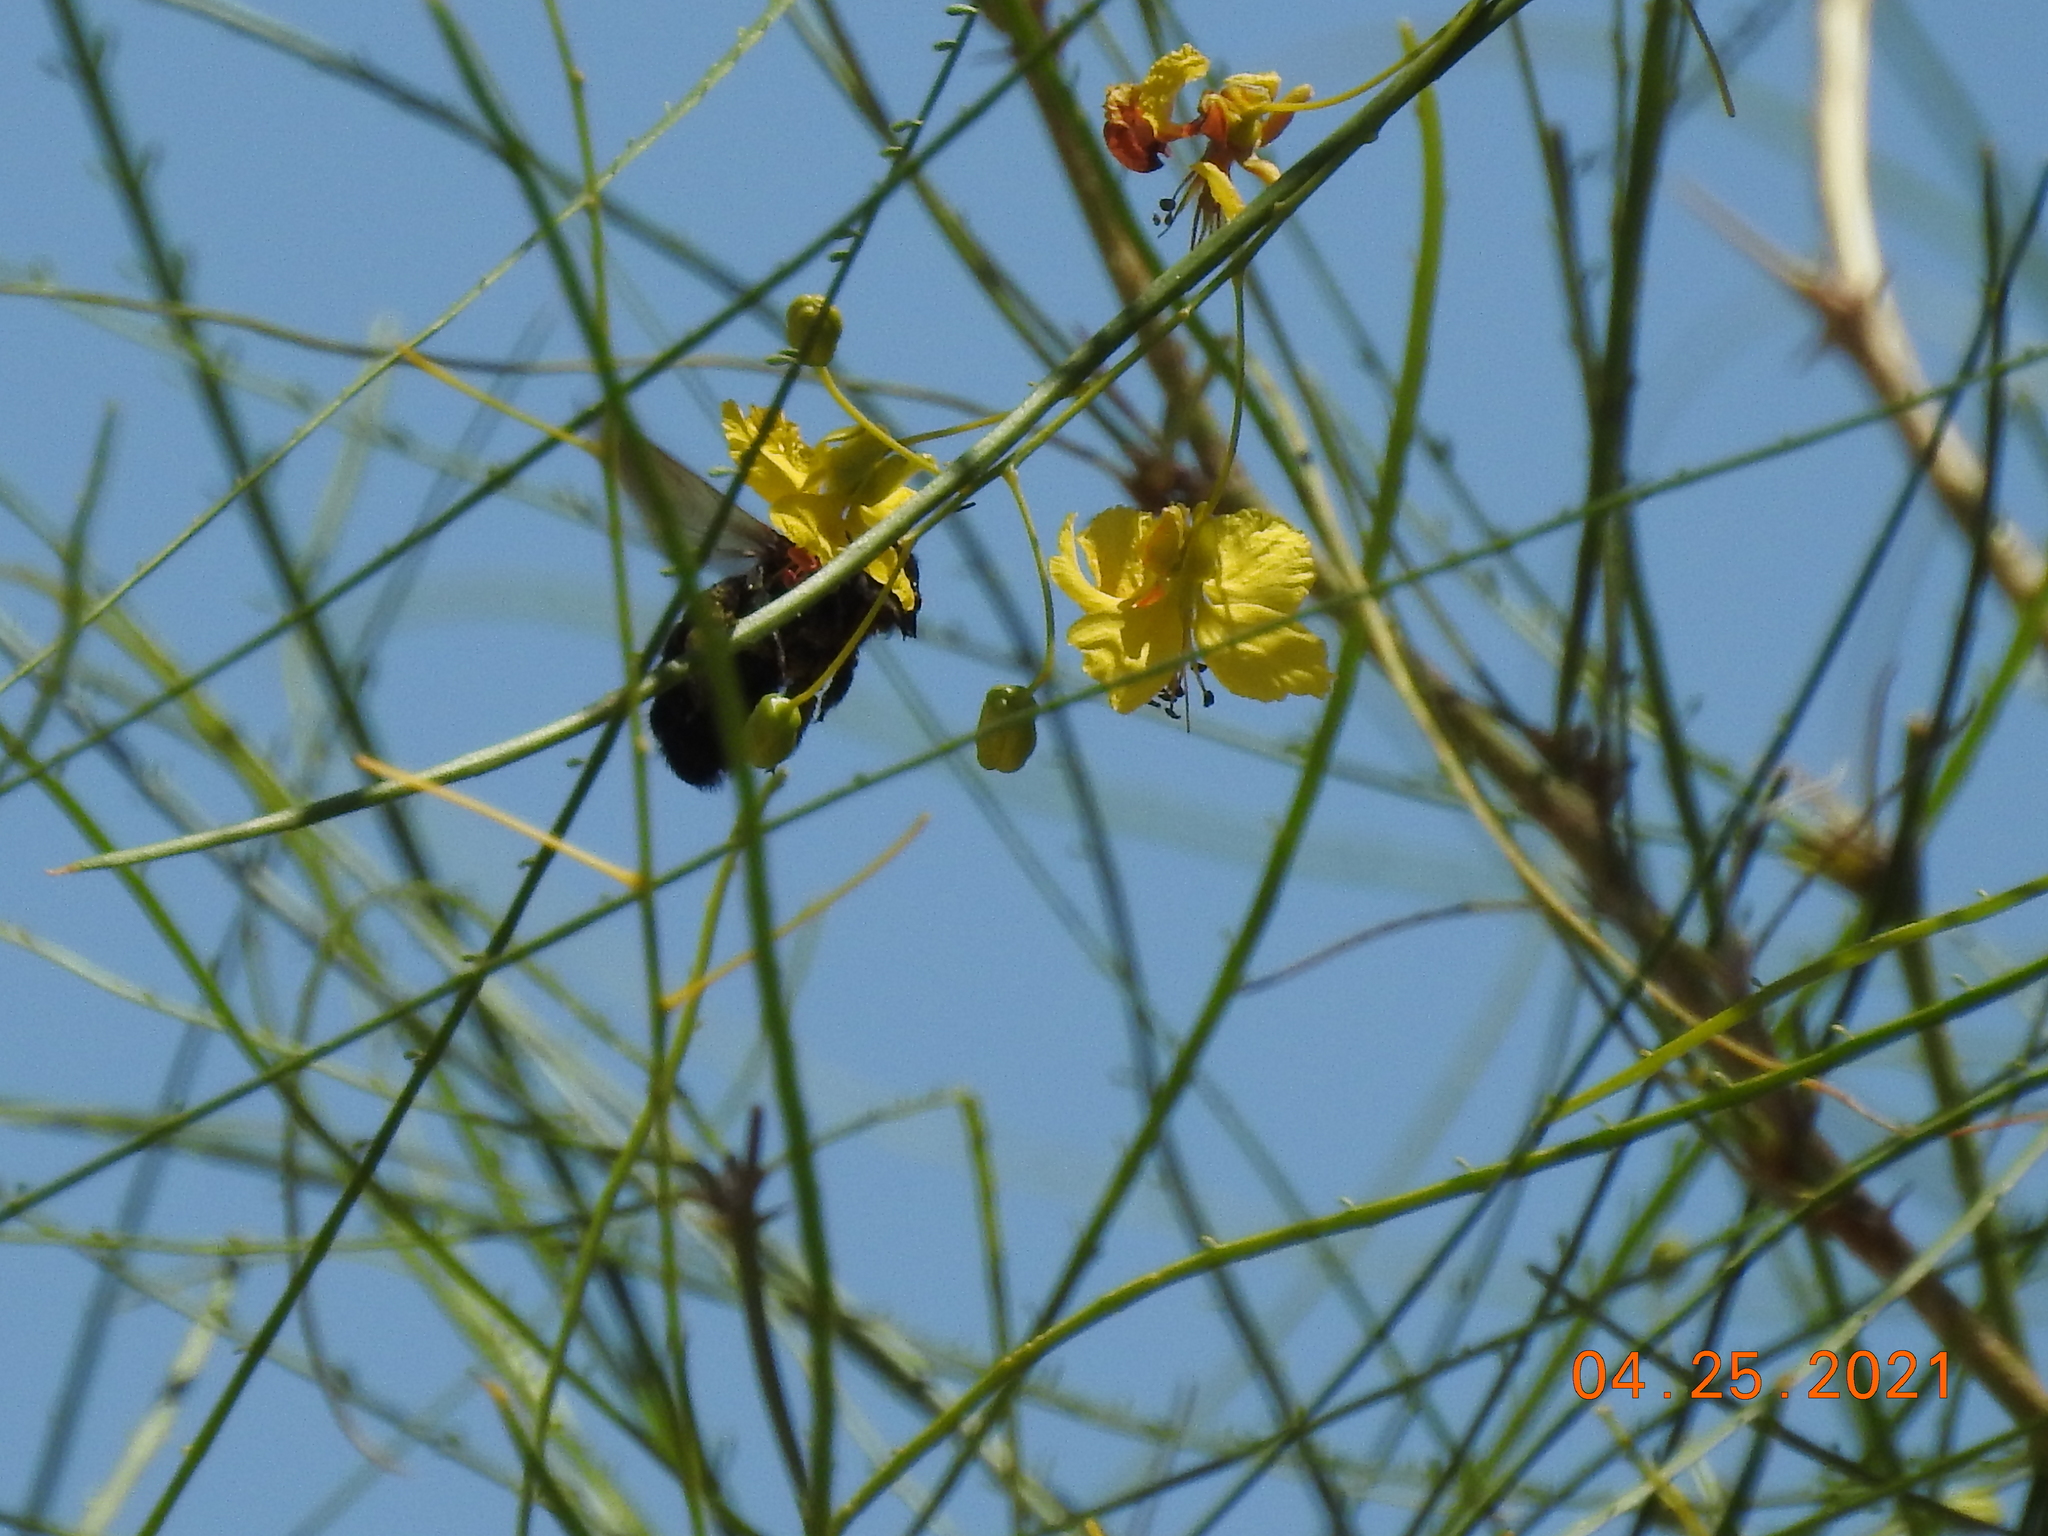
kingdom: Animalia
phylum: Arthropoda
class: Insecta
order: Hymenoptera
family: Apidae
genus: Xylocopa
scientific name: Xylocopa sonorina
